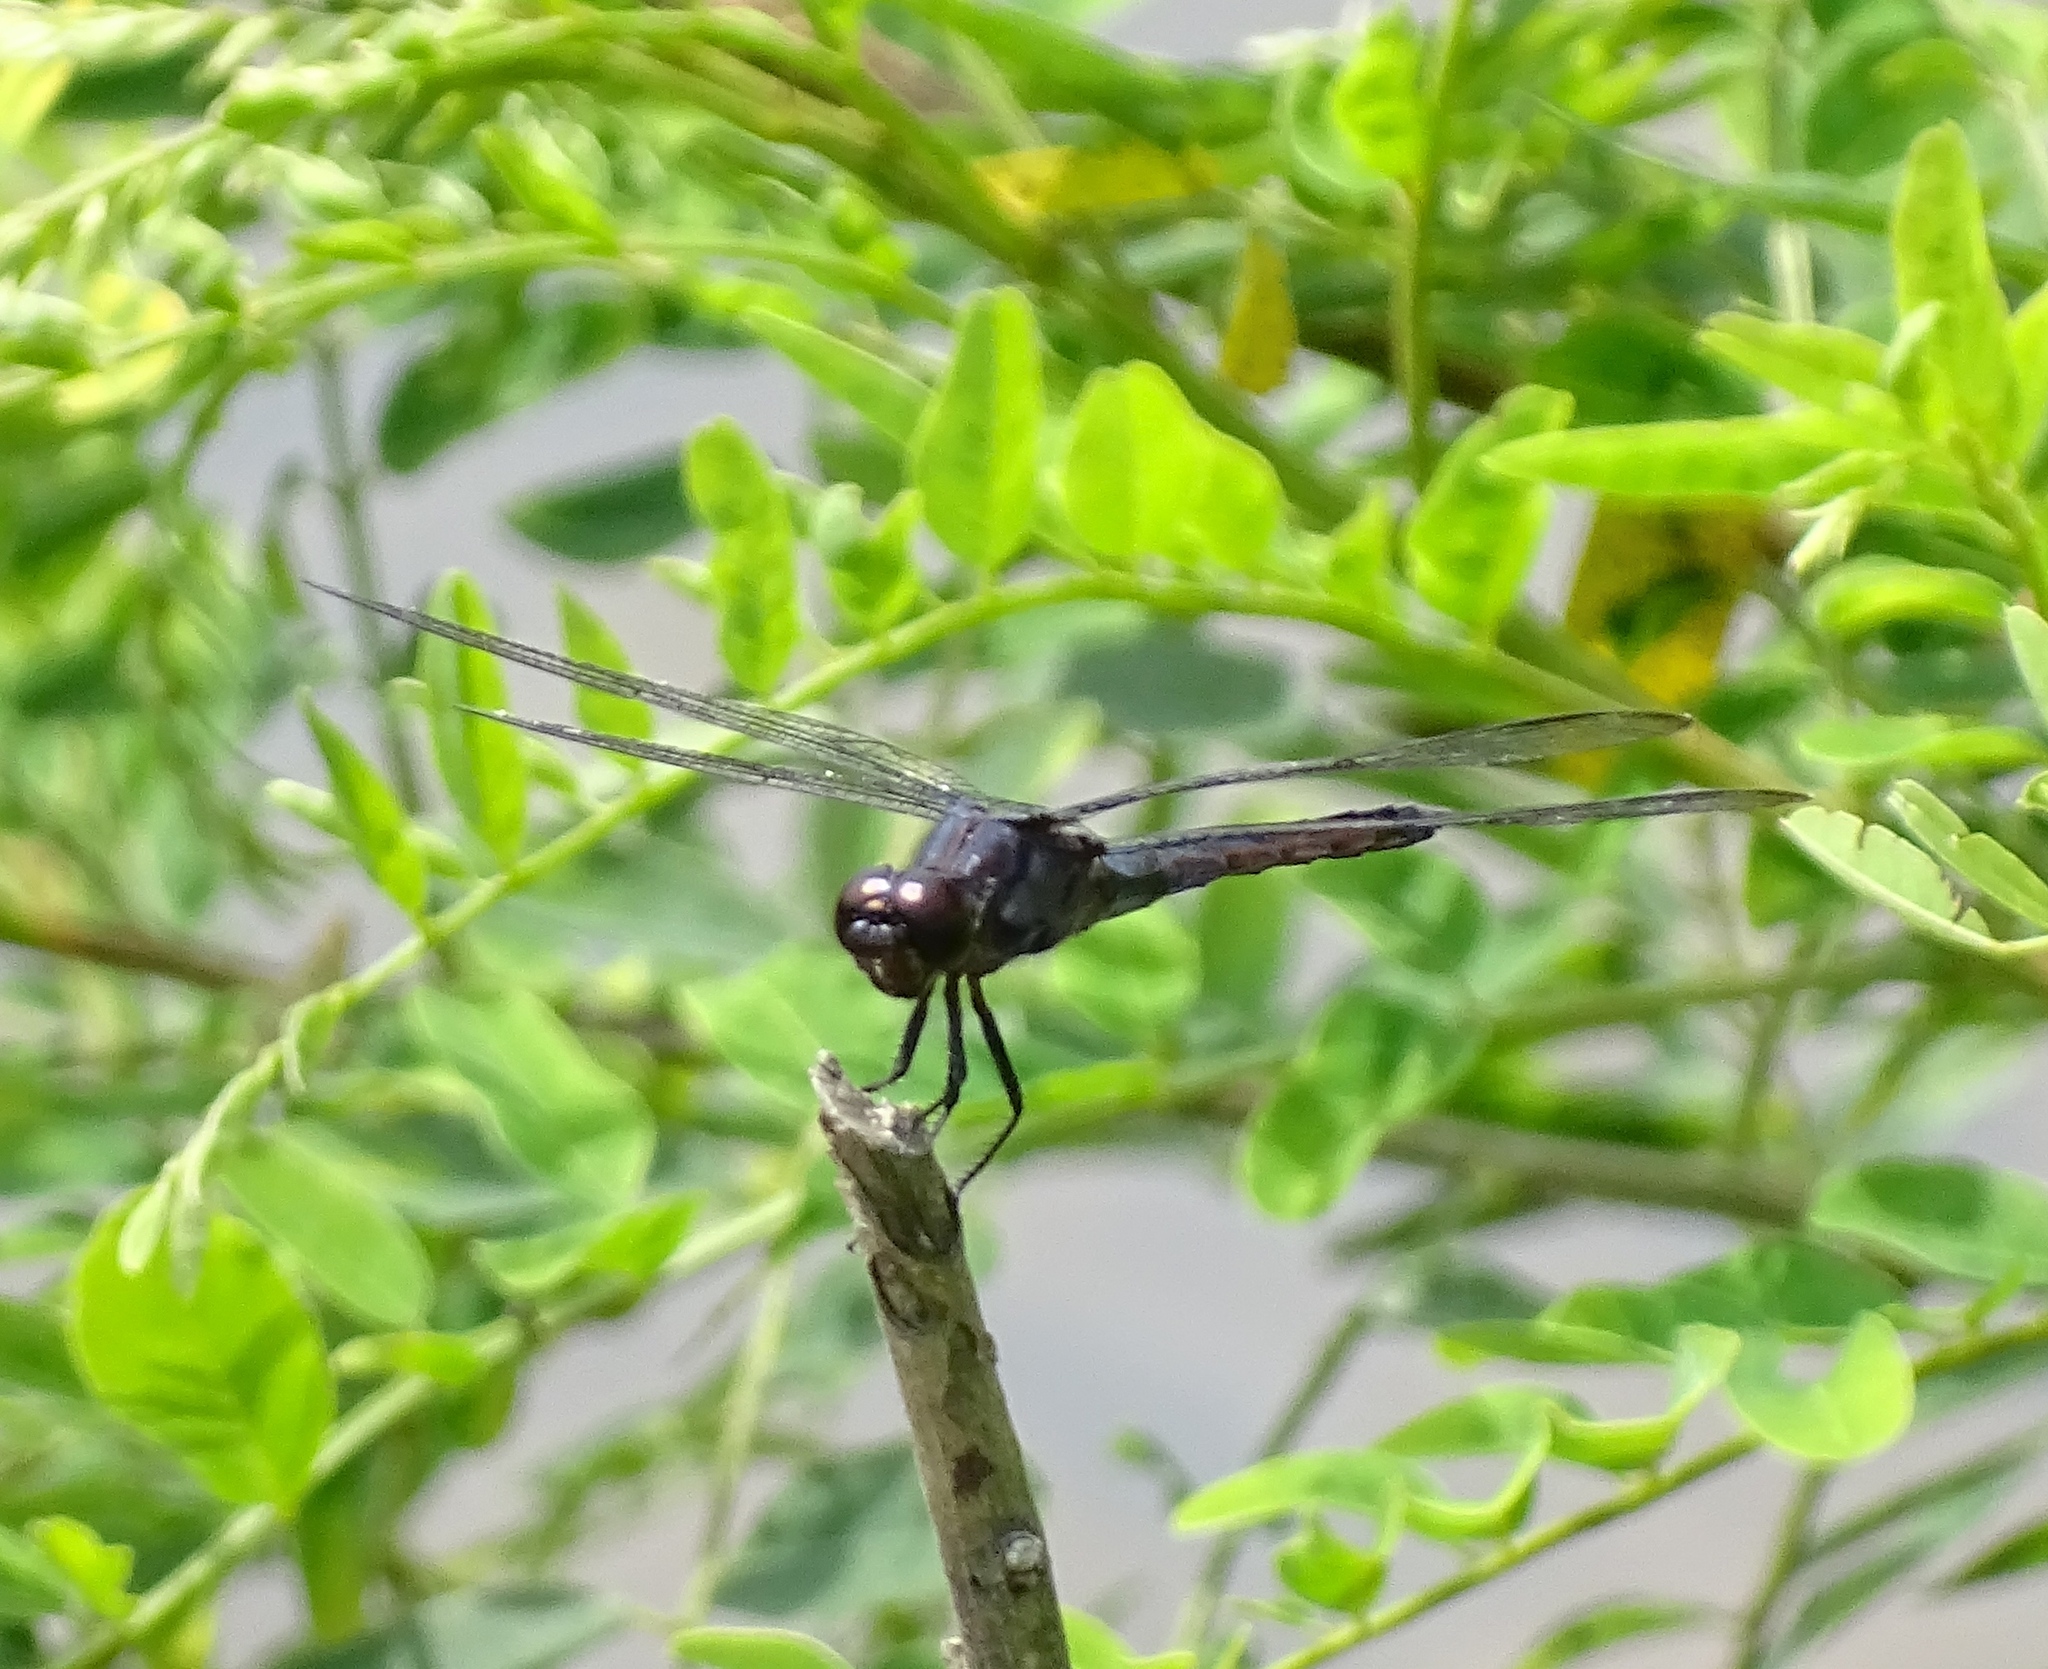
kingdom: Animalia
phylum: Arthropoda
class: Insecta
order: Odonata
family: Libellulidae
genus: Libellula
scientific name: Libellula incesta
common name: Slaty skimmer
